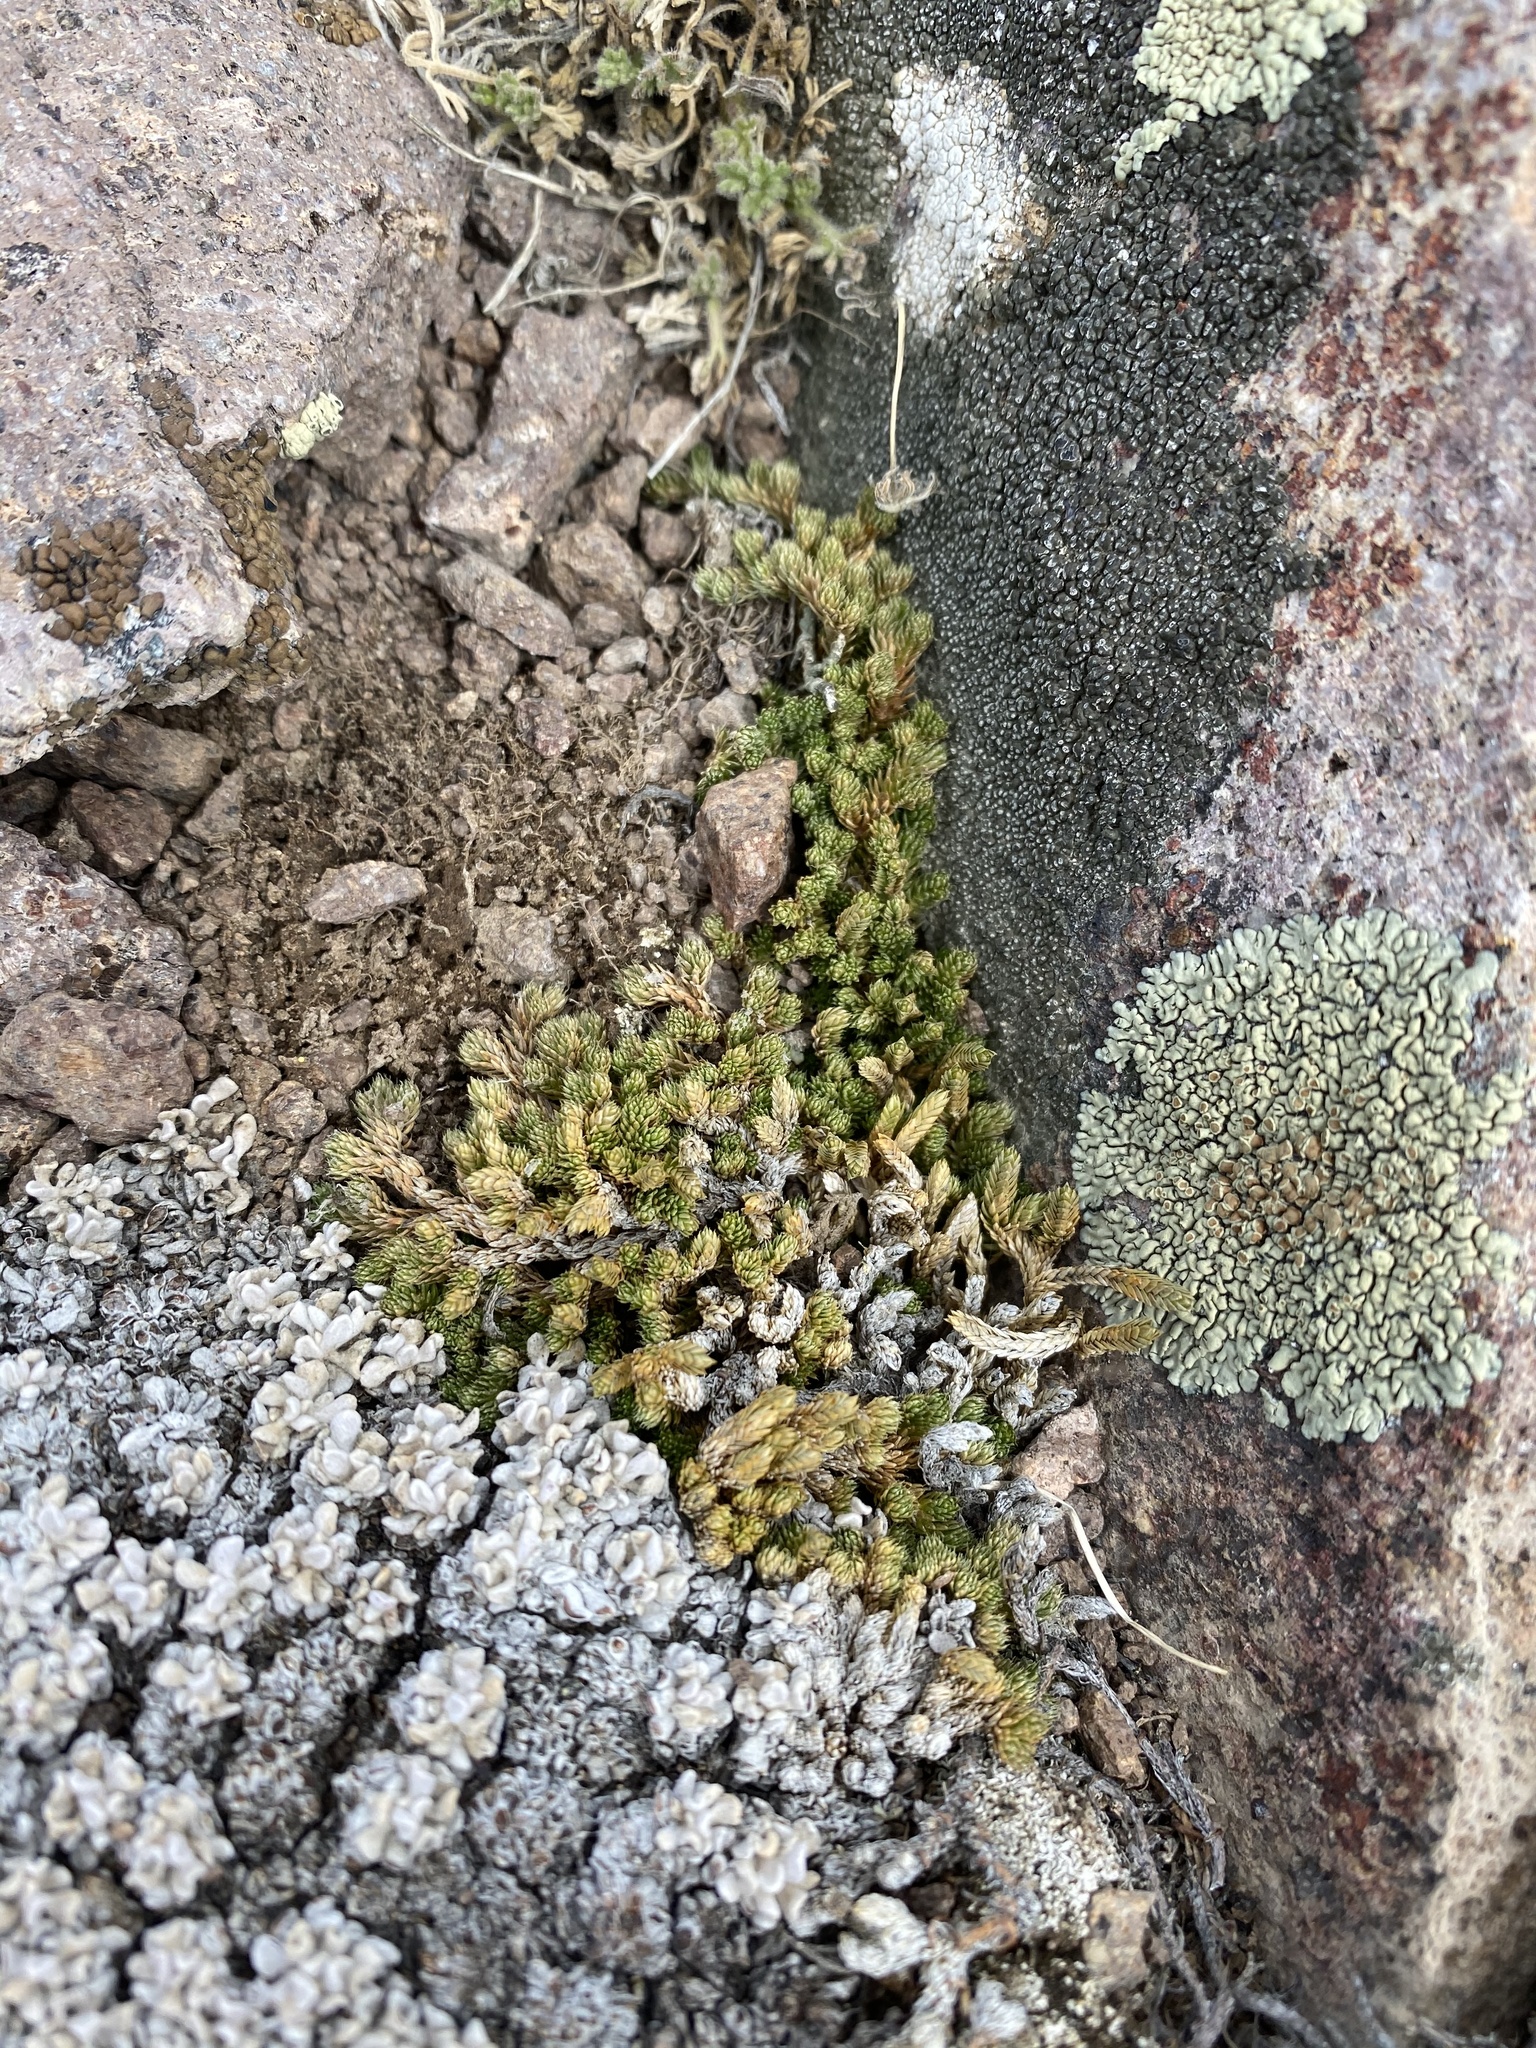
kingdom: Plantae
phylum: Tracheophyta
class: Lycopodiopsida
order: Selaginellales
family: Selaginellaceae
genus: Selaginella
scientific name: Selaginella watsonii
